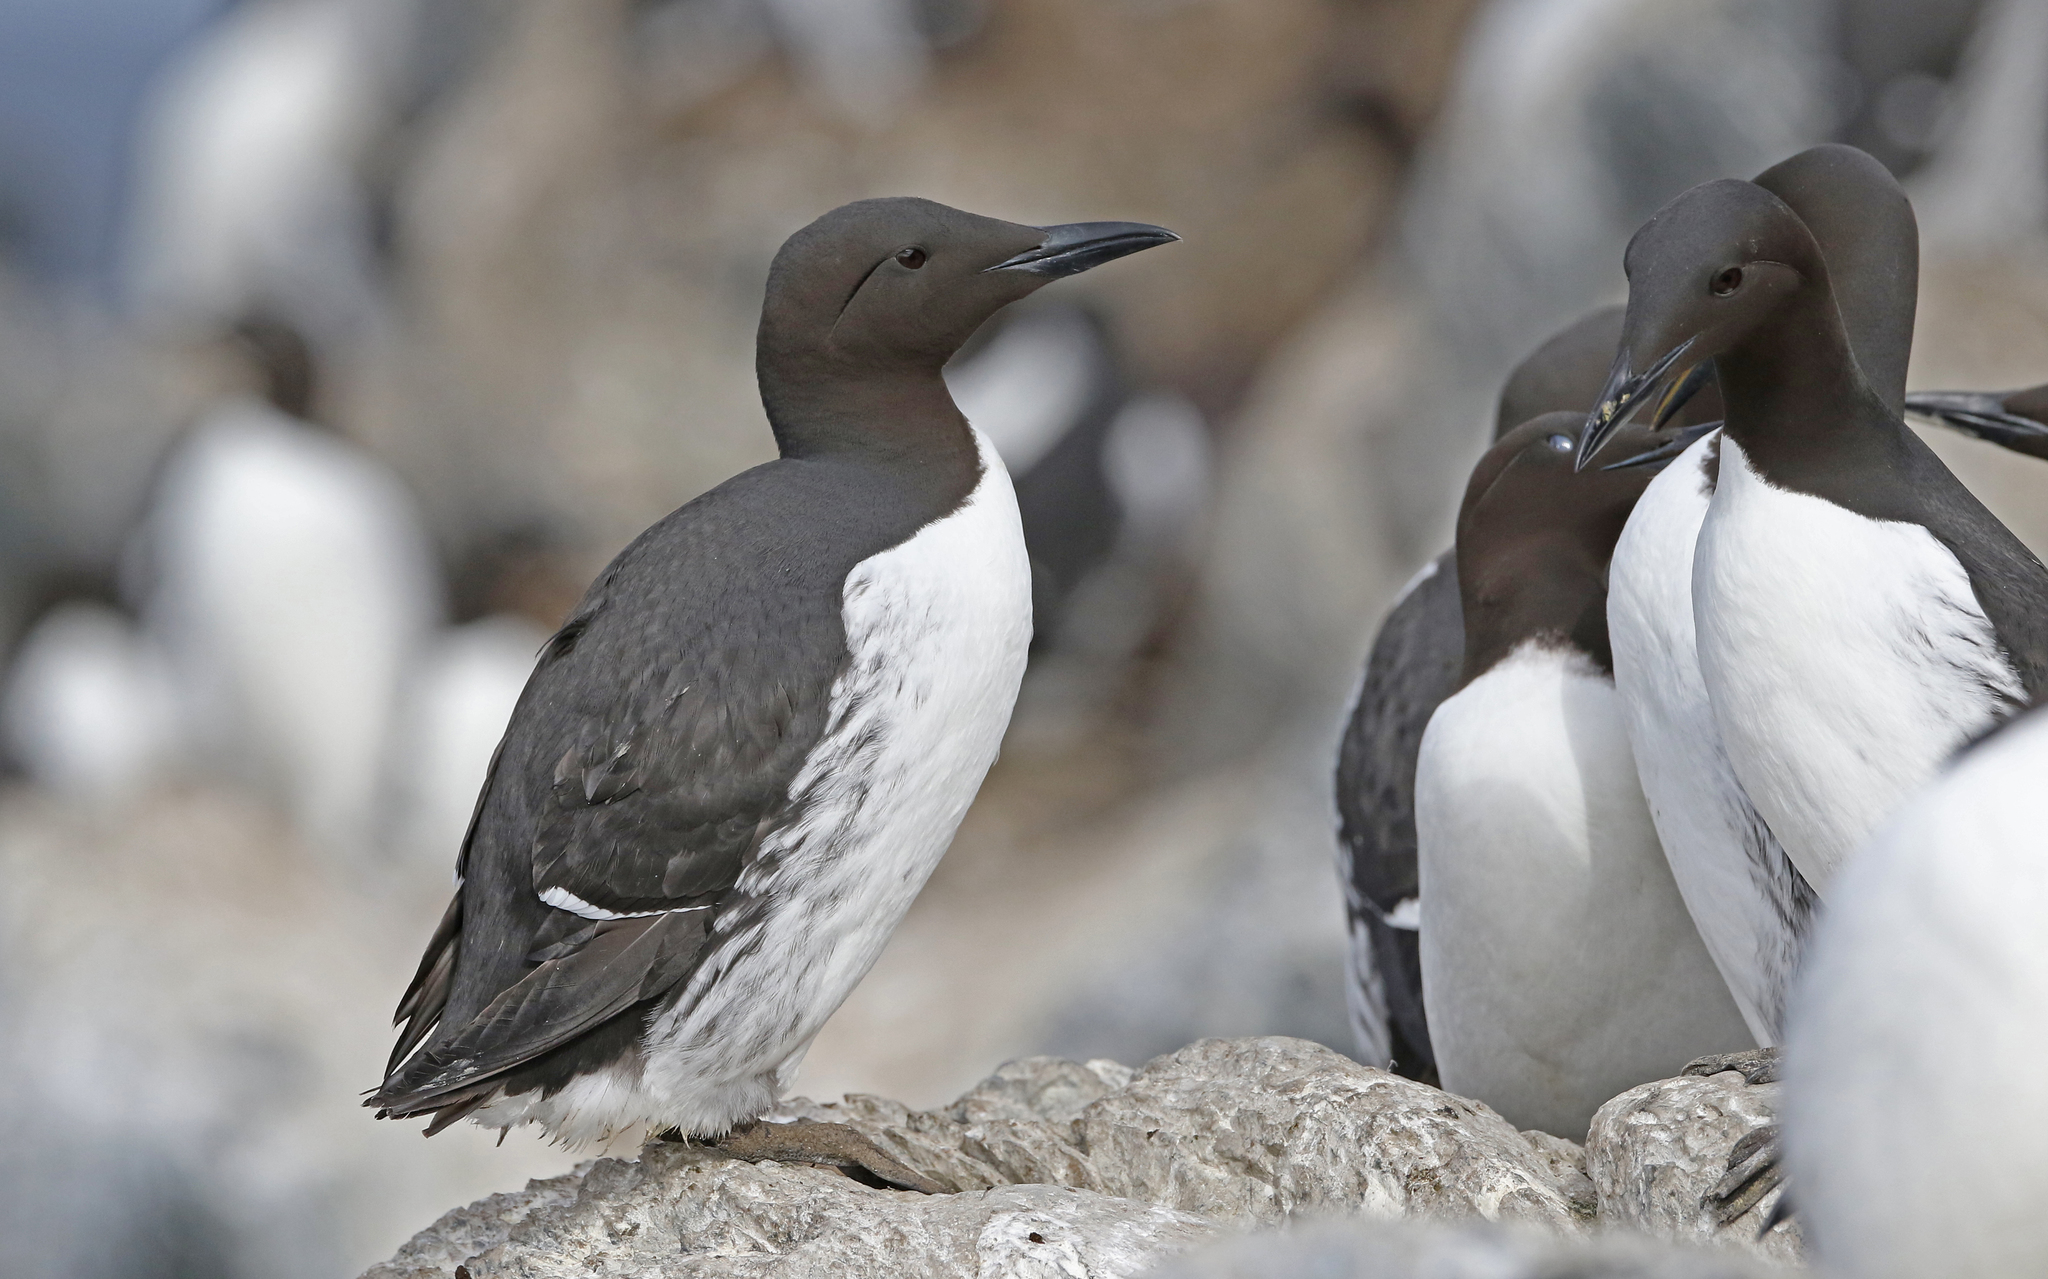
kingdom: Animalia
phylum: Chordata
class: Aves
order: Charadriiformes
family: Alcidae
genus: Uria
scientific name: Uria aalge
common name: Common murre
